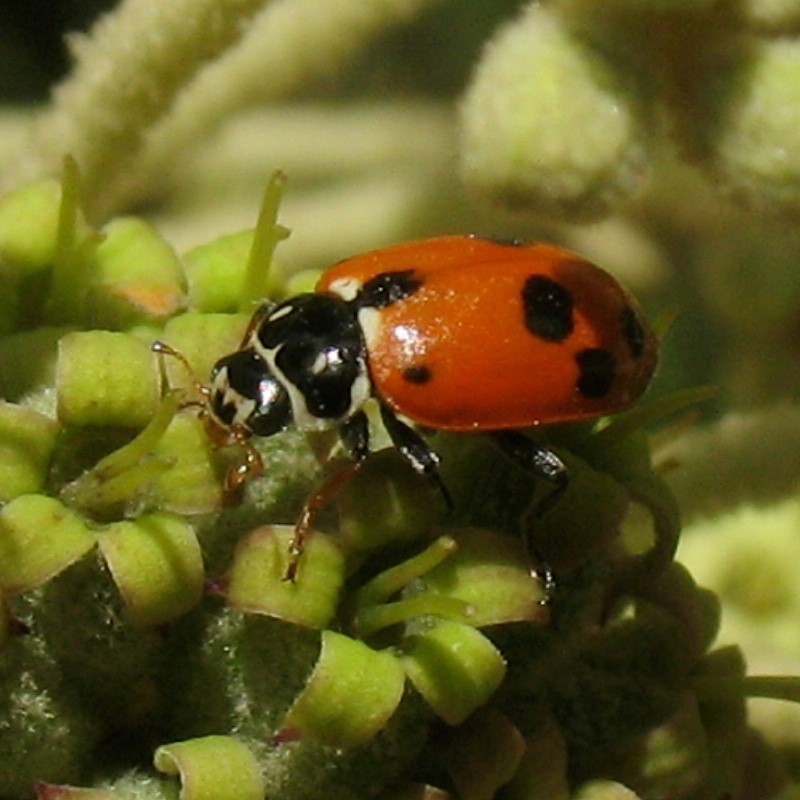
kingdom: Animalia
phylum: Arthropoda
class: Insecta
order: Coleoptera
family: Coccinellidae
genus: Hippodamia
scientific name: Hippodamia variegata
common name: Ladybird beetle
